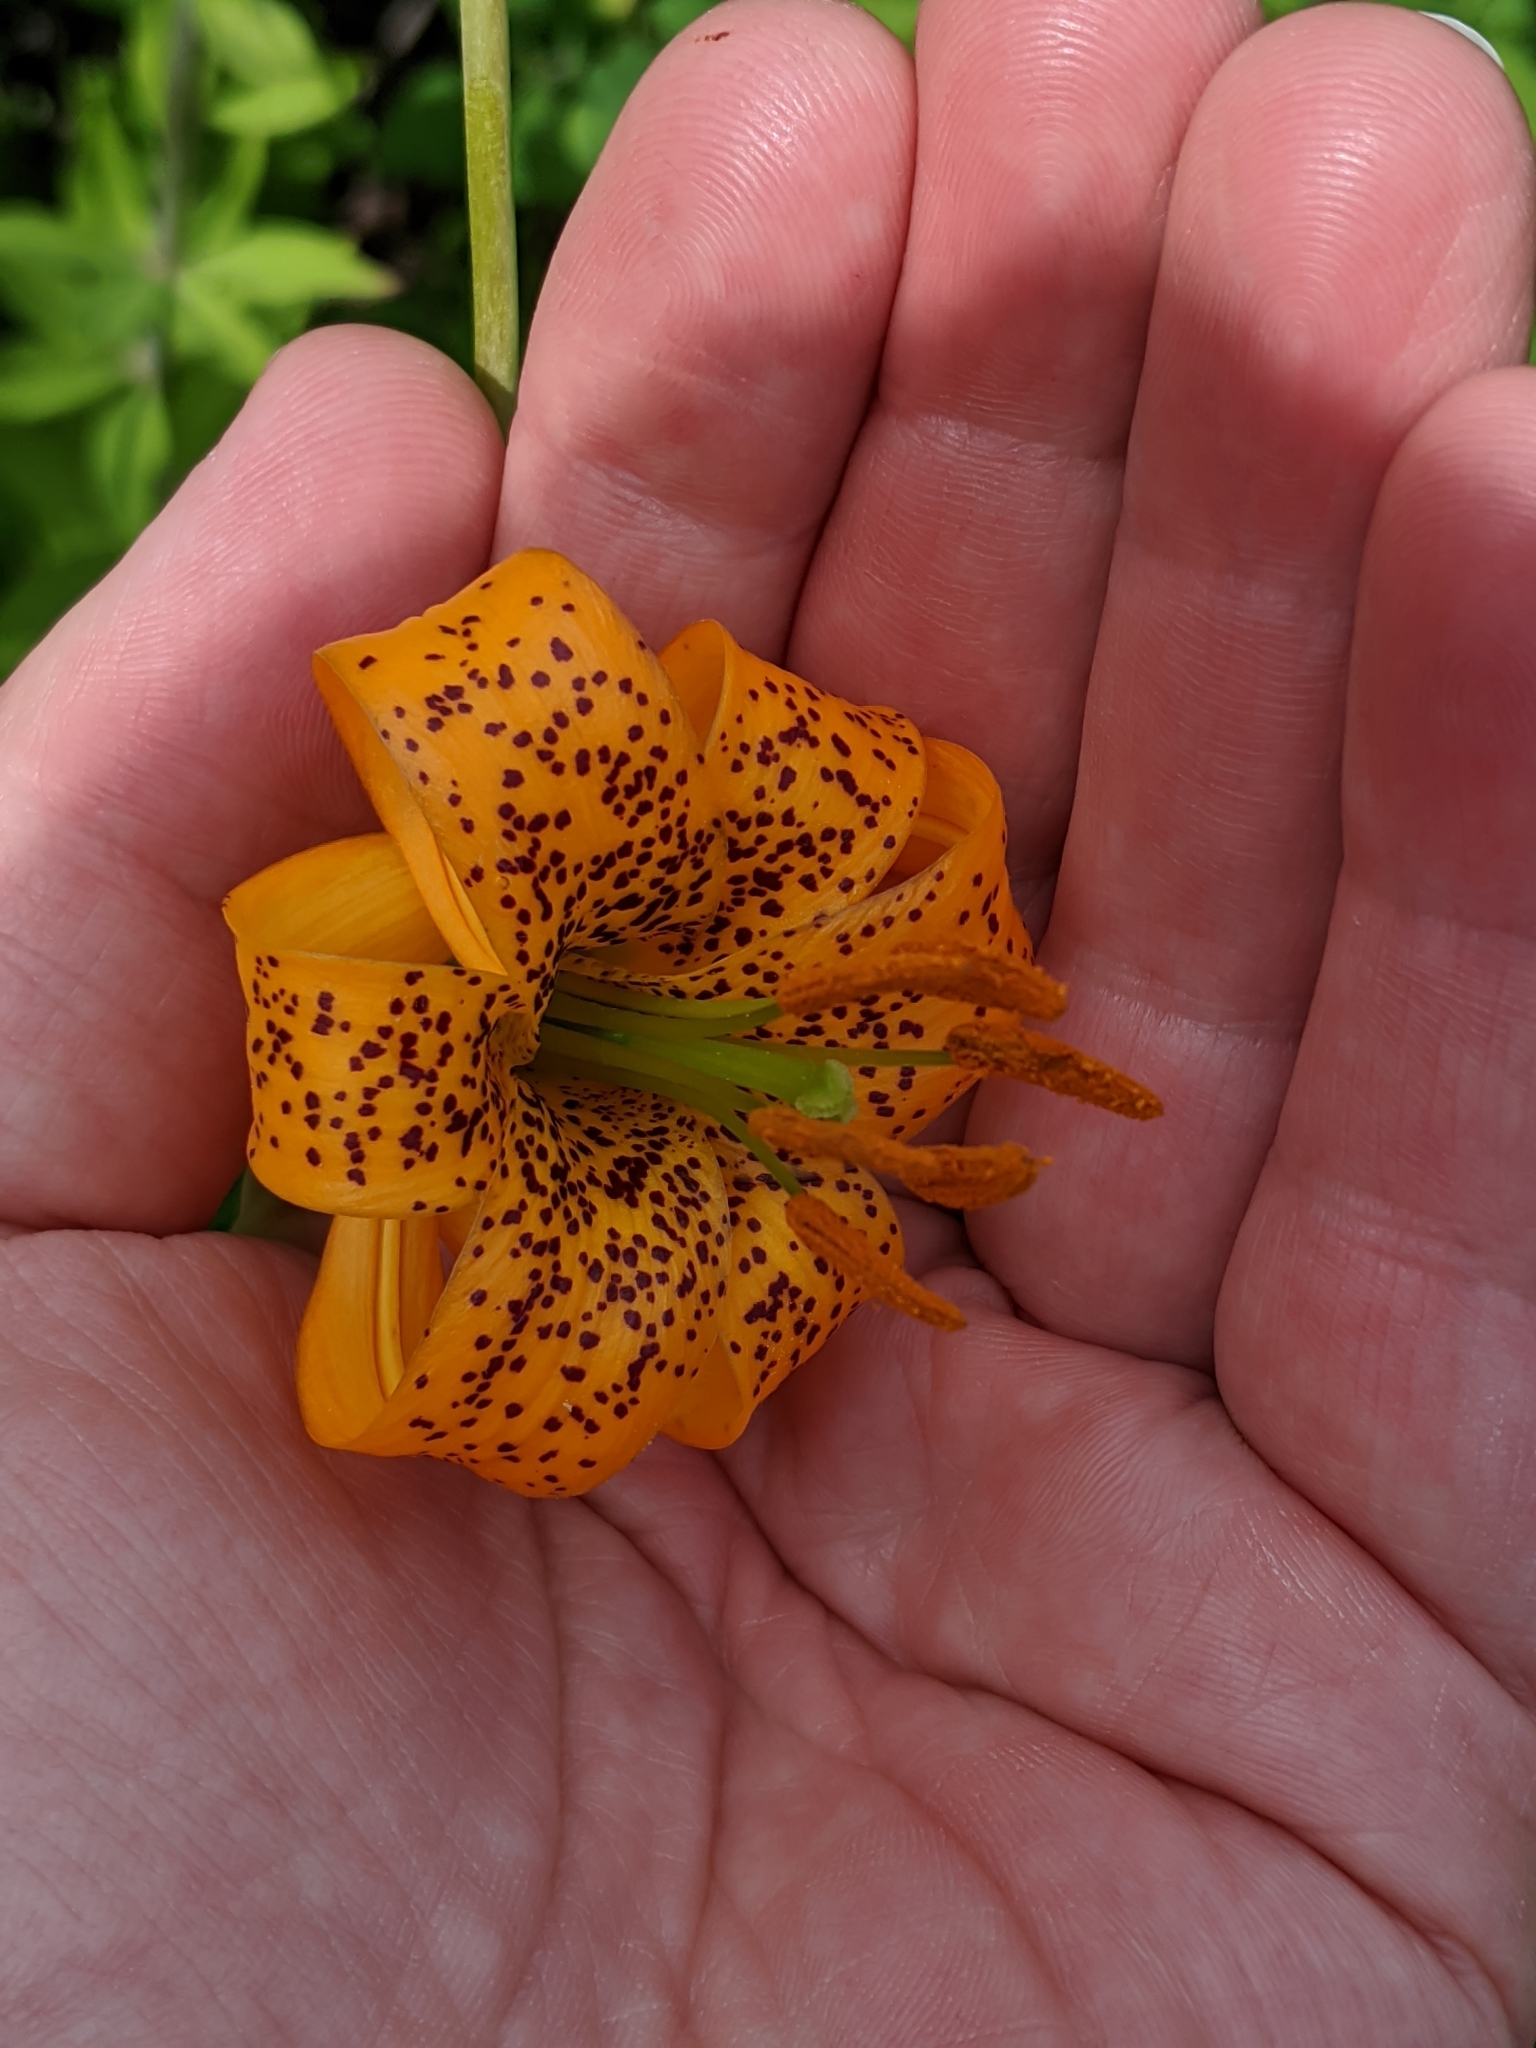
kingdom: Plantae
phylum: Tracheophyta
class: Liliopsida
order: Liliales
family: Liliaceae
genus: Lilium
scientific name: Lilium columbianum
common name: Columbia lily
